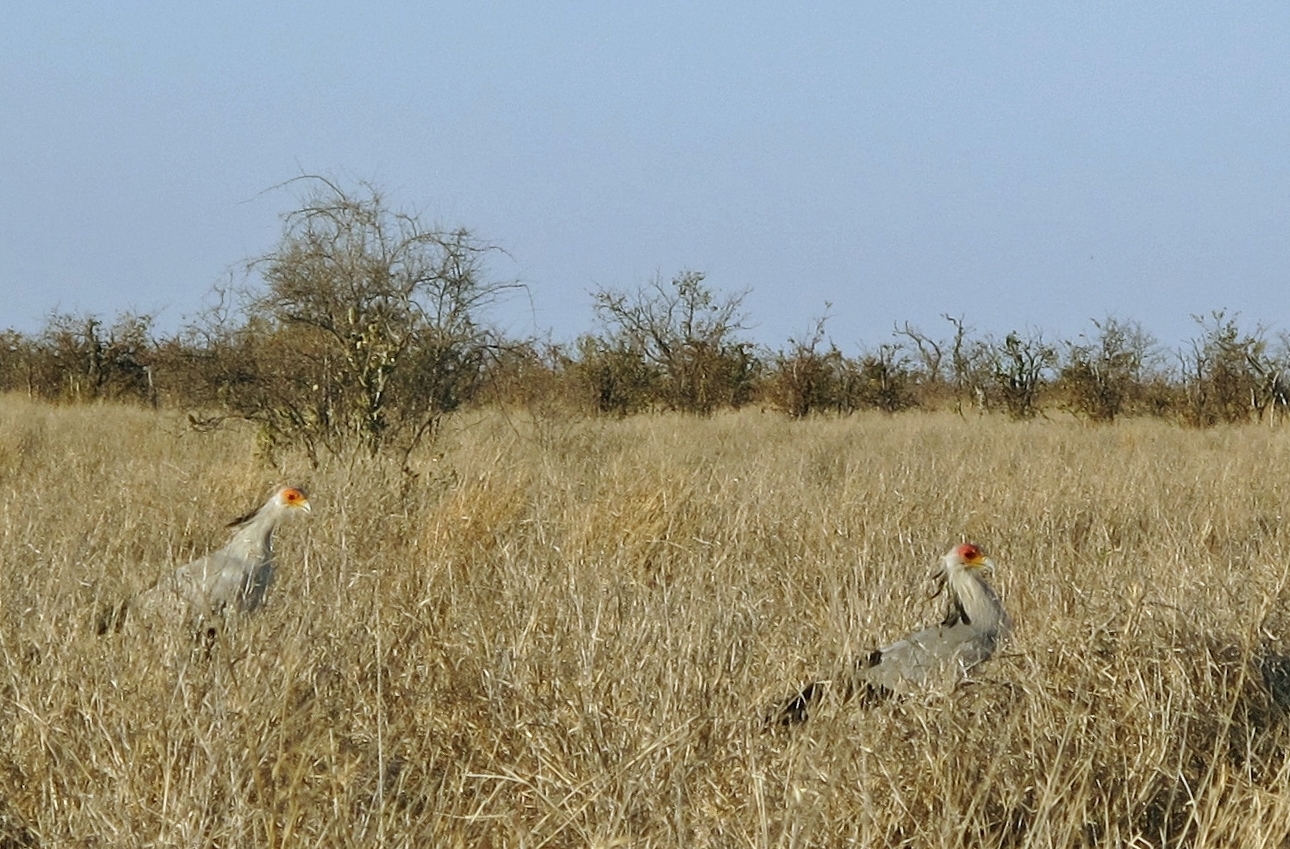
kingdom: Animalia
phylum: Chordata
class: Aves
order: Accipitriformes
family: Sagittariidae
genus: Sagittarius
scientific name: Sagittarius serpentarius
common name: Secretarybird
